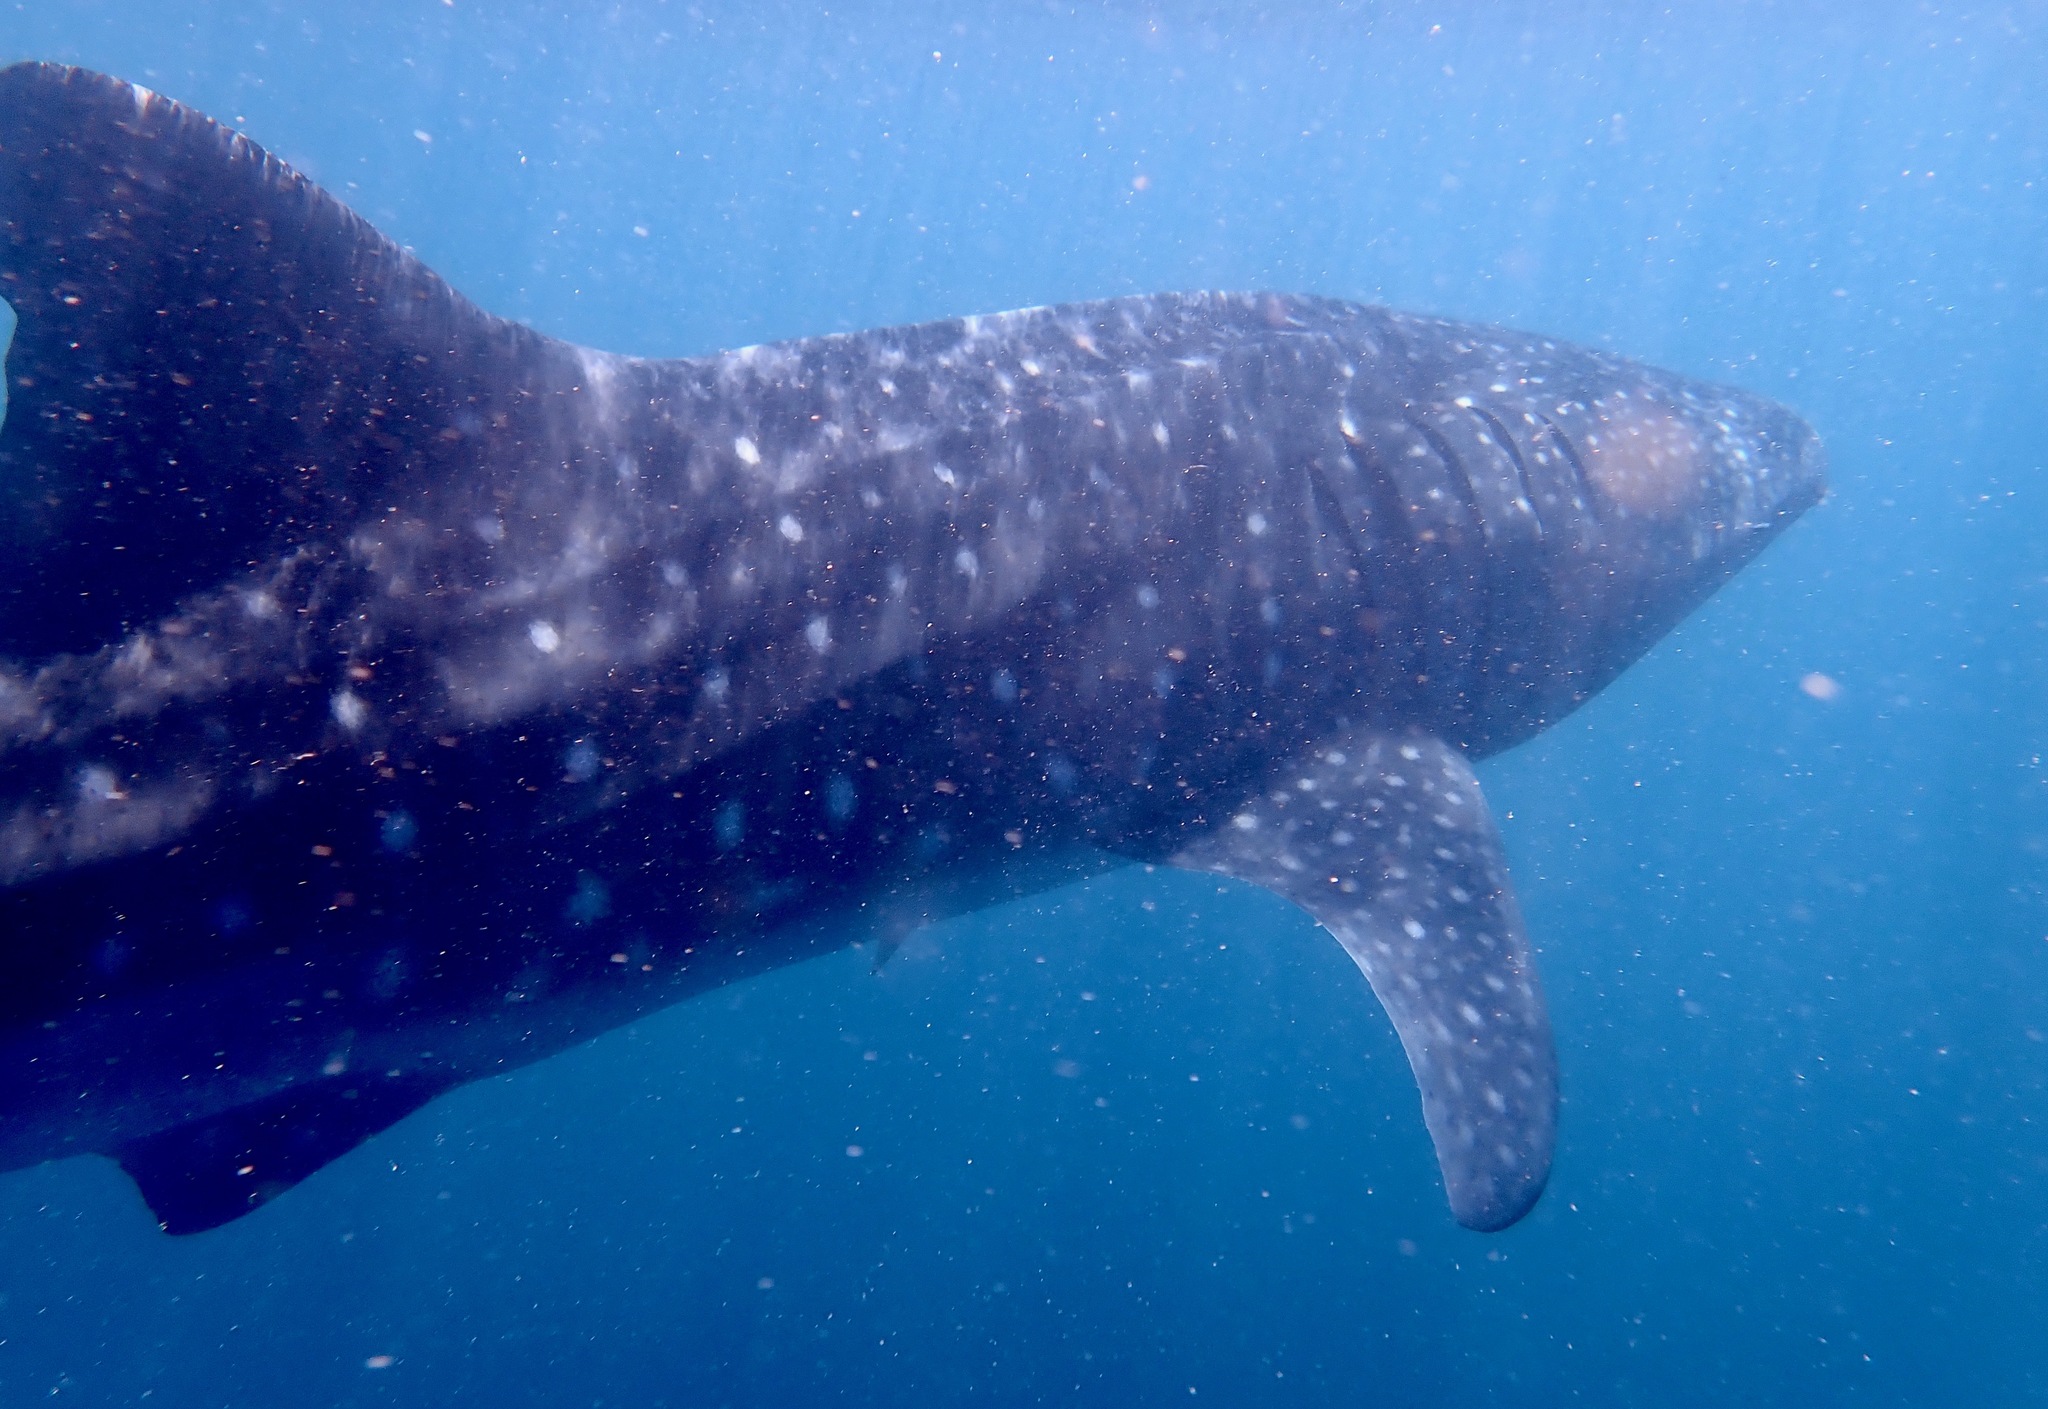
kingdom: Animalia
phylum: Chordata
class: Elasmobranchii
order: Orectolobiformes
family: Rhincodontidae
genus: Rhincodon
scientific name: Rhincodon typus
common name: Whale shark
